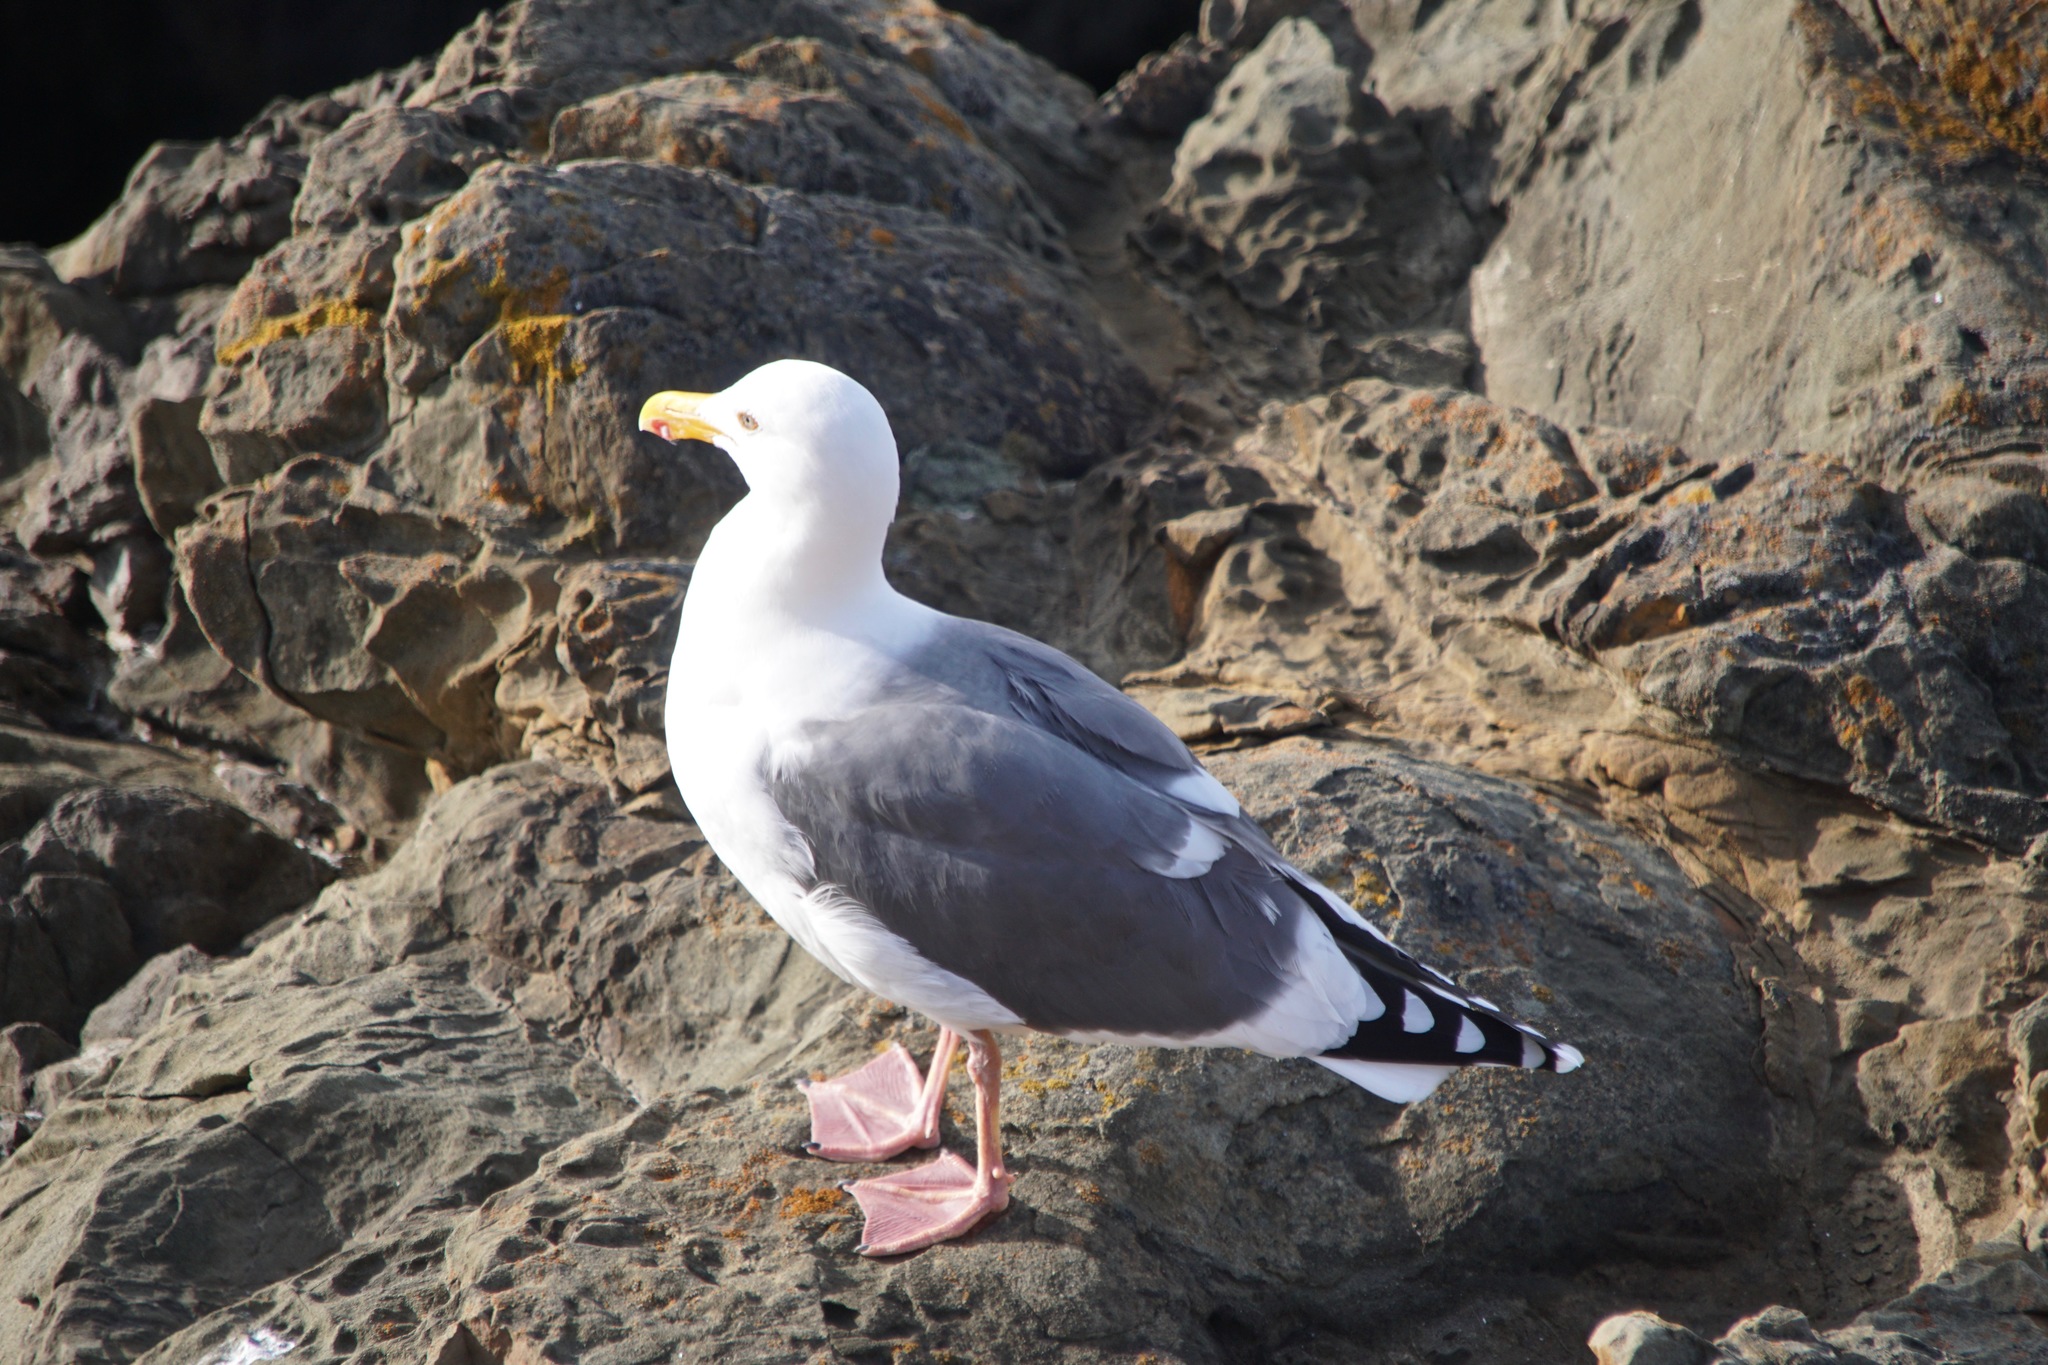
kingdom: Animalia
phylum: Chordata
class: Aves
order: Charadriiformes
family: Laridae
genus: Larus
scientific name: Larus occidentalis
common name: Western gull
